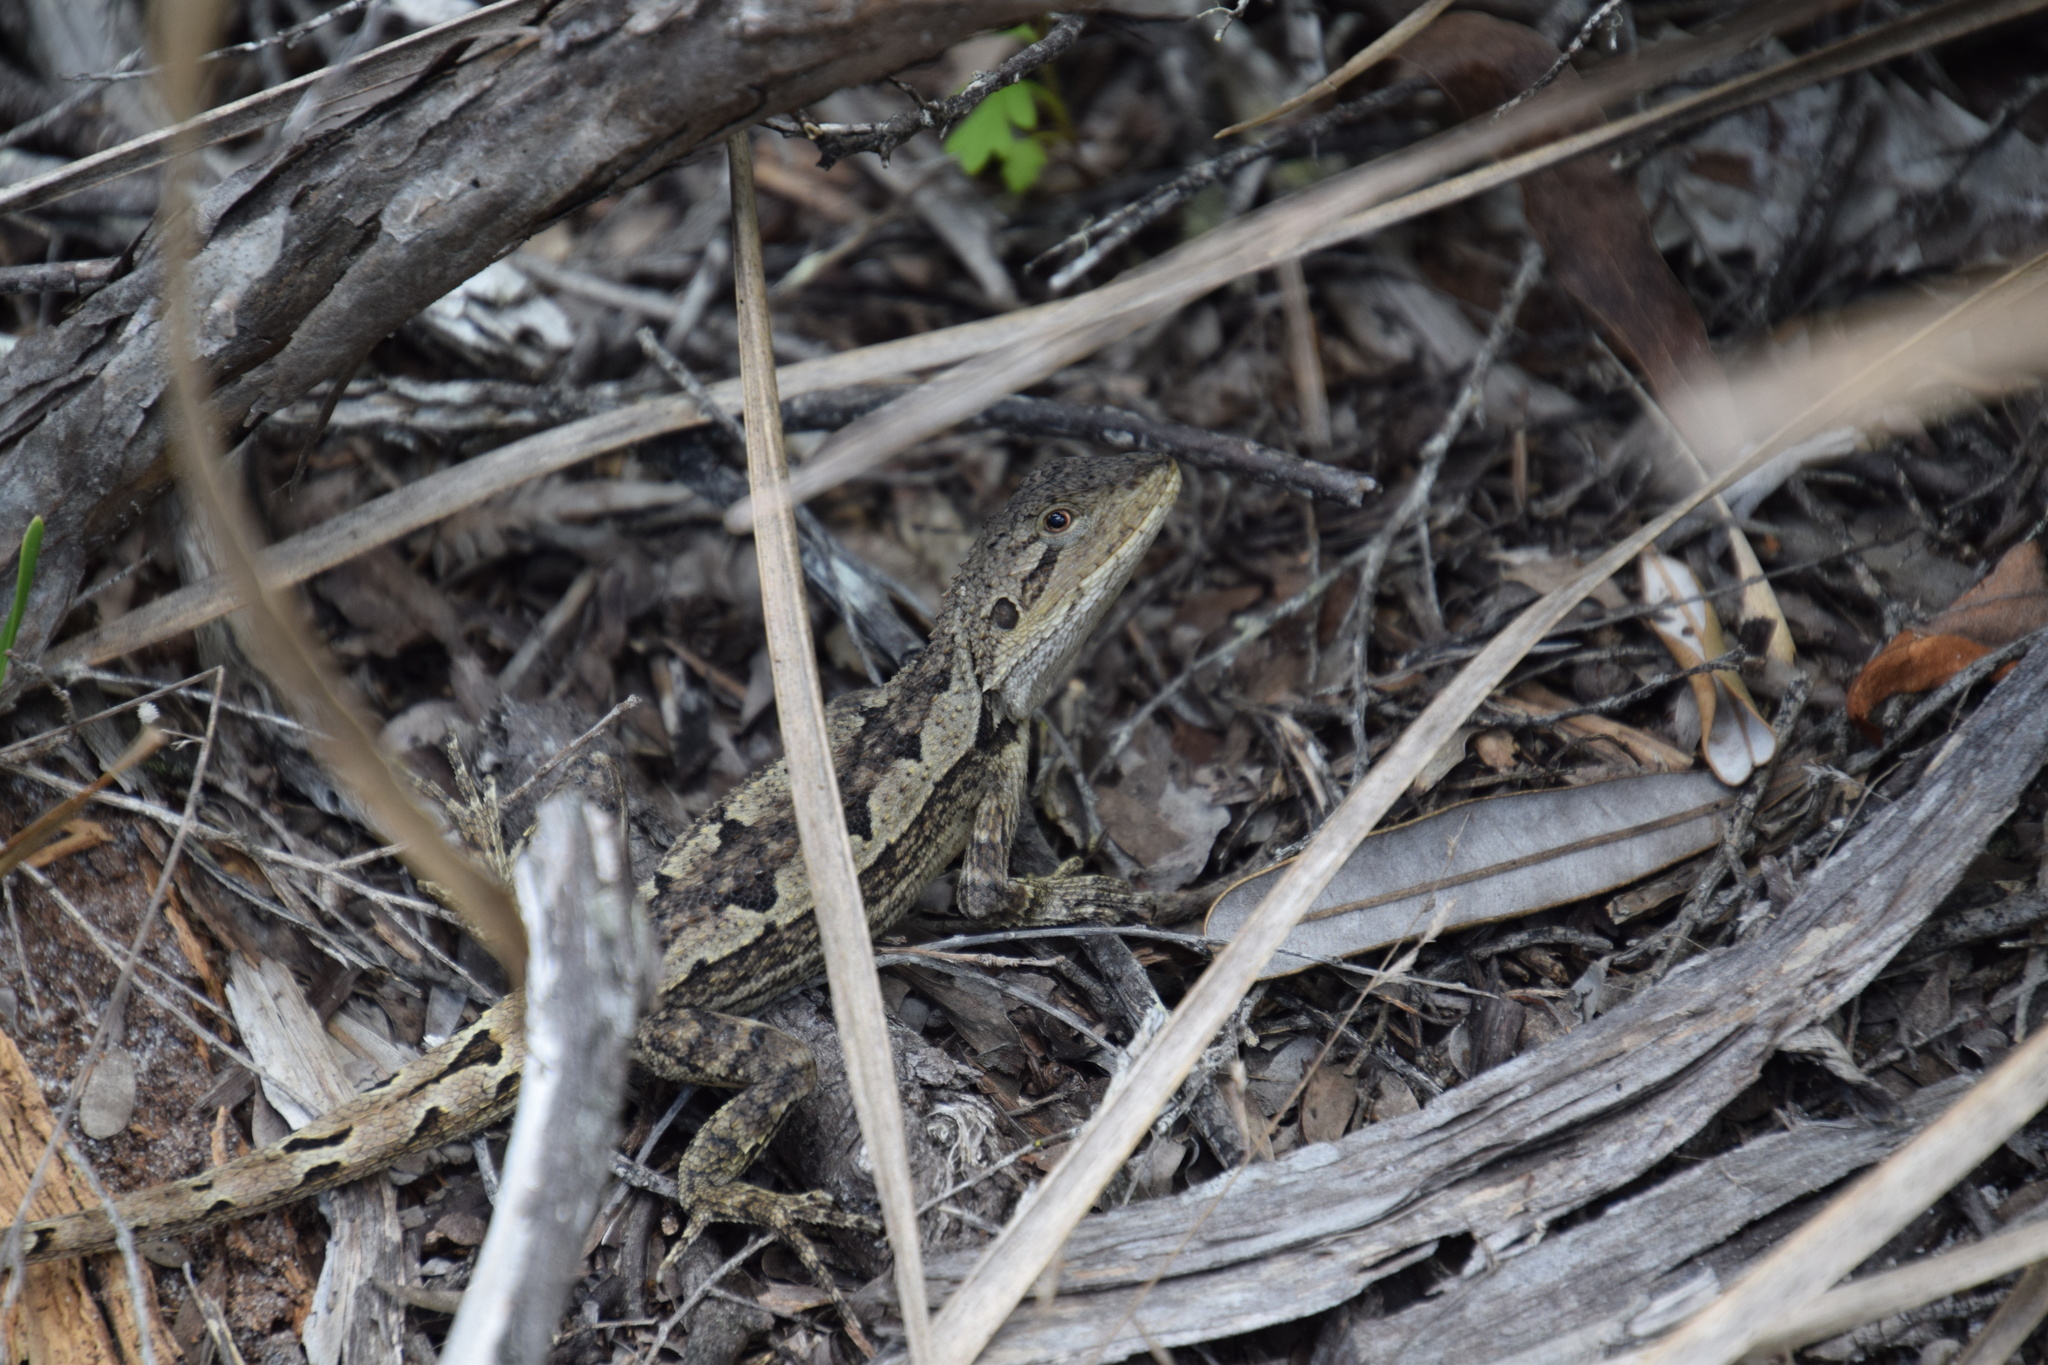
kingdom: Animalia
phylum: Chordata
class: Squamata
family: Agamidae
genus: Amphibolurus
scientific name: Amphibolurus muricatus
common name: Jacky lizard
